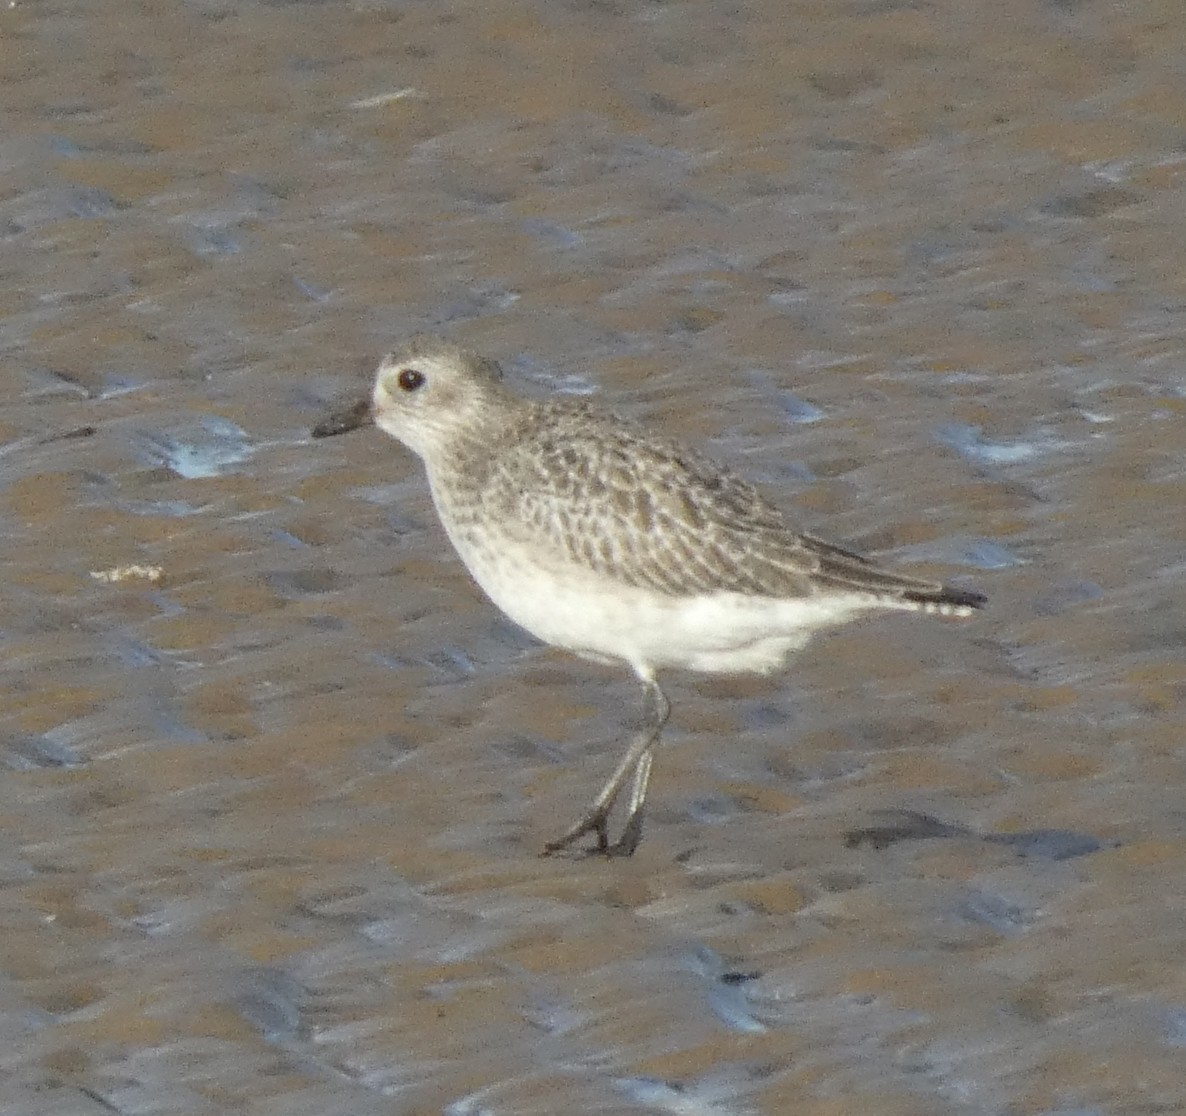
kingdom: Animalia
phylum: Chordata
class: Aves
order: Charadriiformes
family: Charadriidae
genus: Pluvialis
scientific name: Pluvialis squatarola
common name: Grey plover
